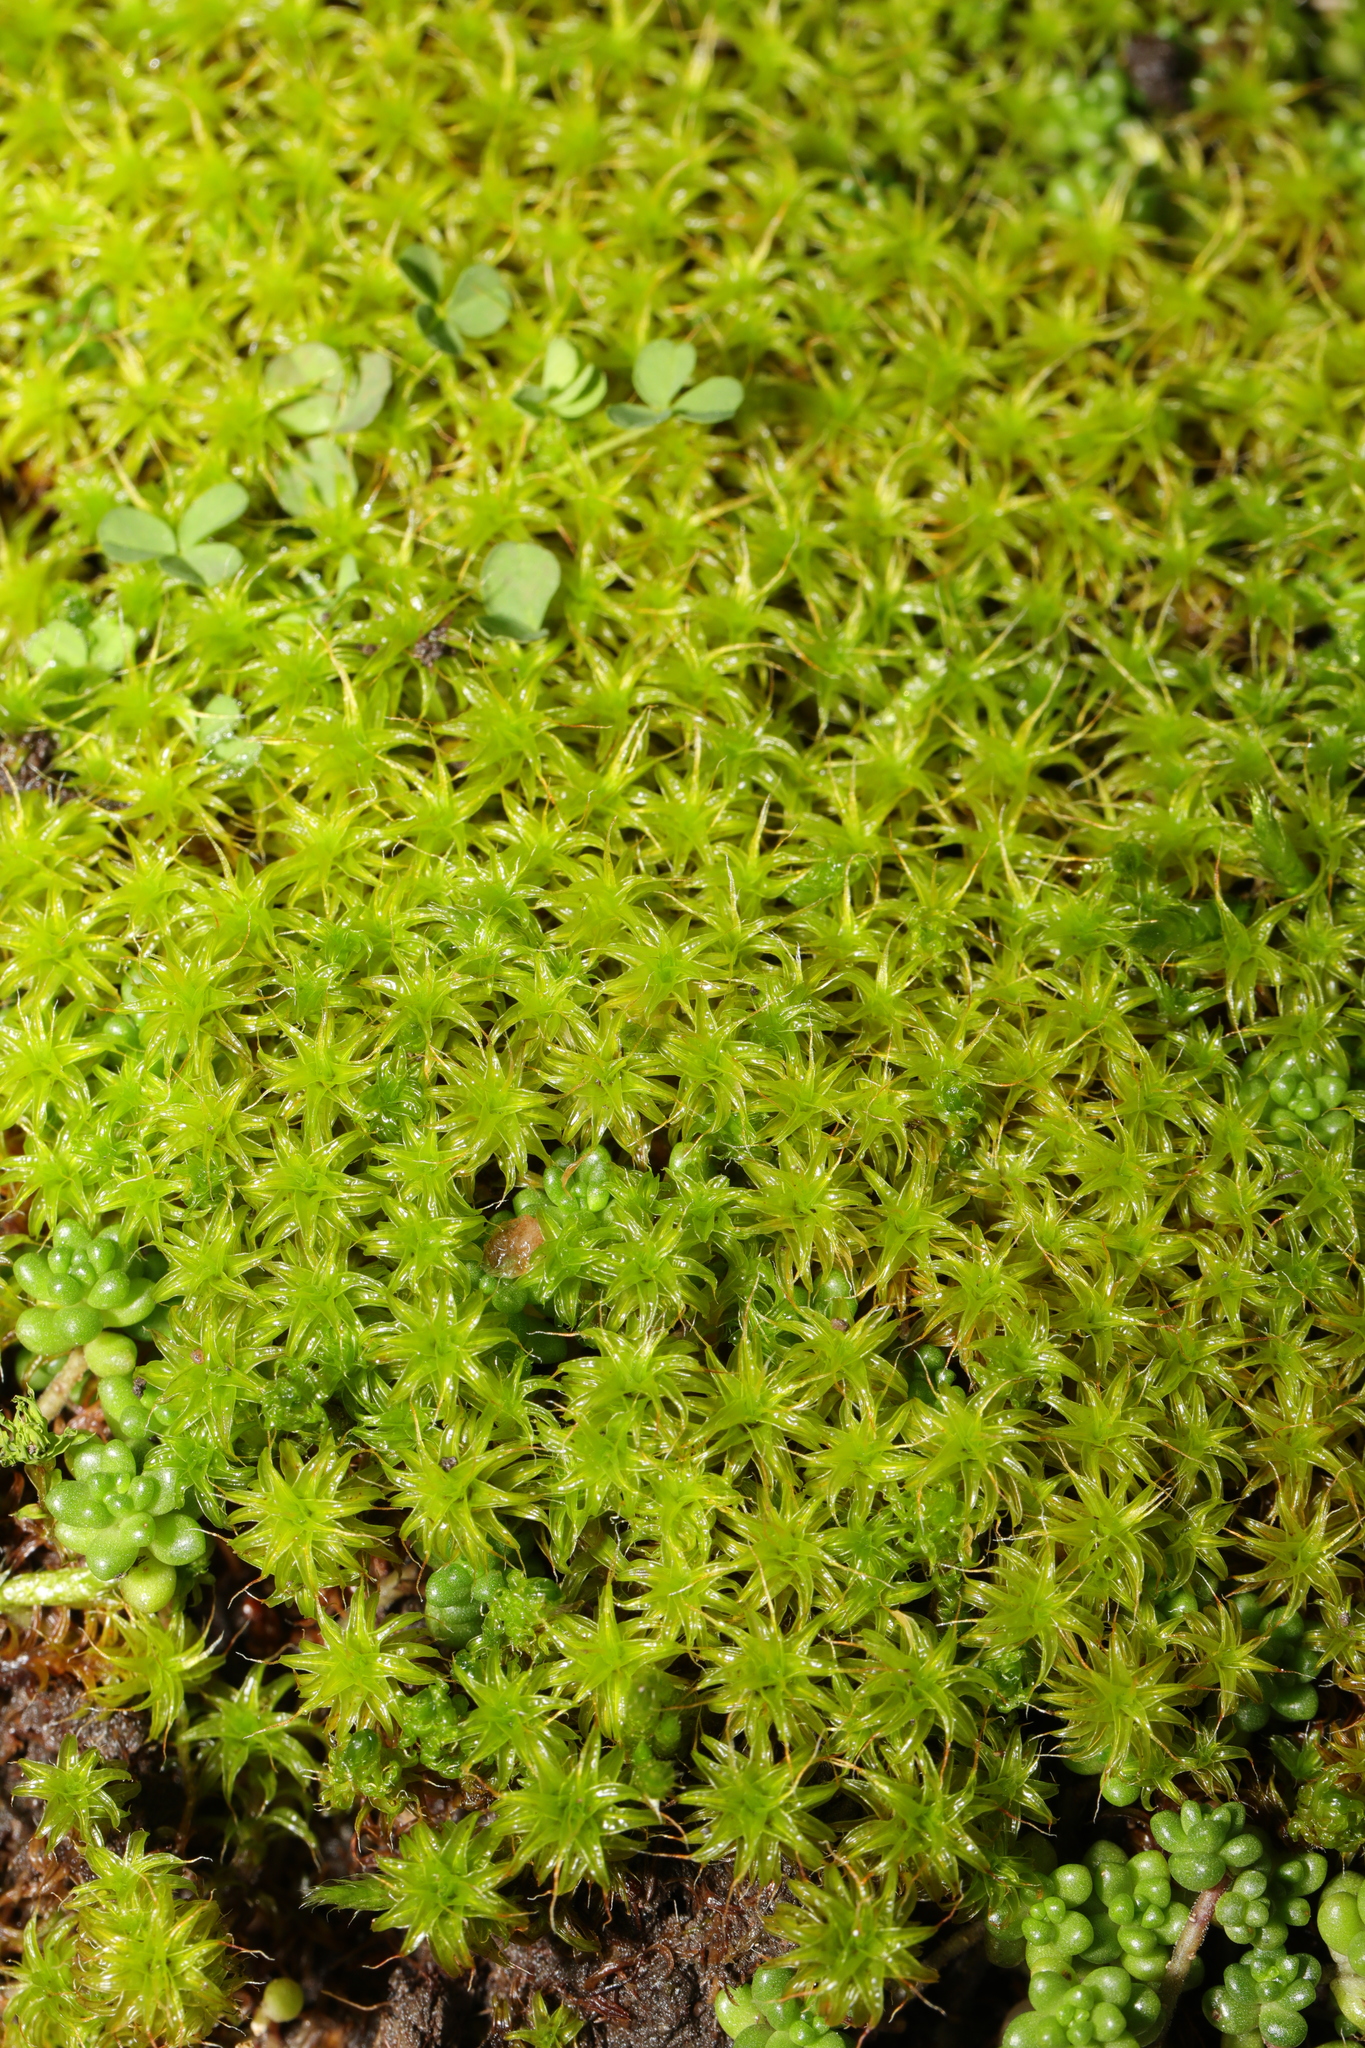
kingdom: Plantae
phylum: Bryophyta
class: Bryopsida
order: Pottiales
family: Pottiaceae
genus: Syntrichia
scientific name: Syntrichia ruralis
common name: Sidewalk screw moss
